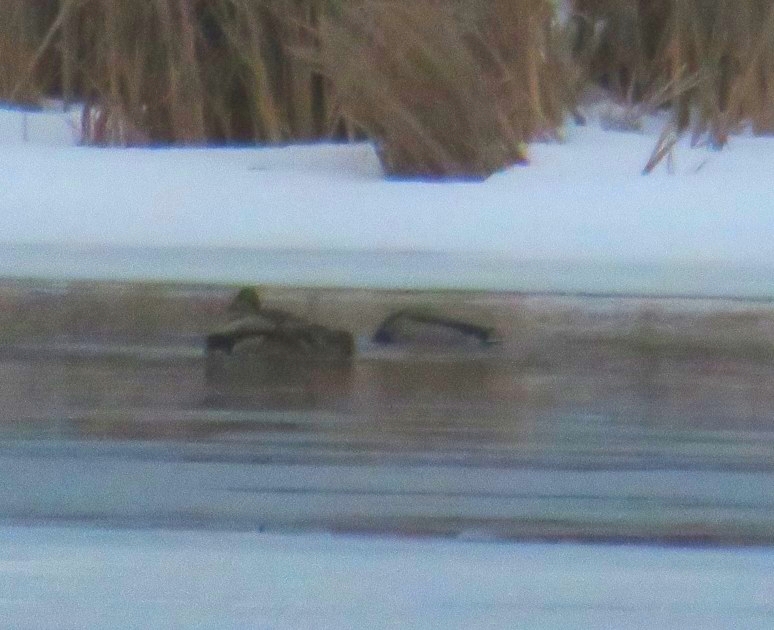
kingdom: Animalia
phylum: Chordata
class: Aves
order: Anseriformes
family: Anatidae
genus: Anas
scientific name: Anas platyrhynchos
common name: Mallard
